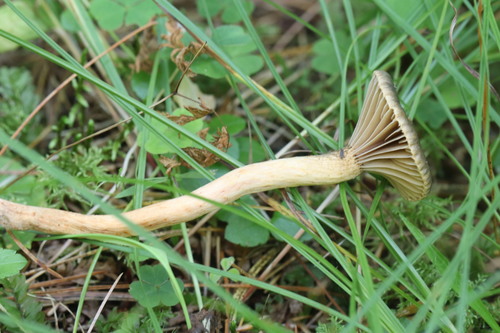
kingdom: Fungi
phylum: Basidiomycota
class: Agaricomycetes
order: Boletales
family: Gomphidiaceae
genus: Chroogomphus
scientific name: Chroogomphus
